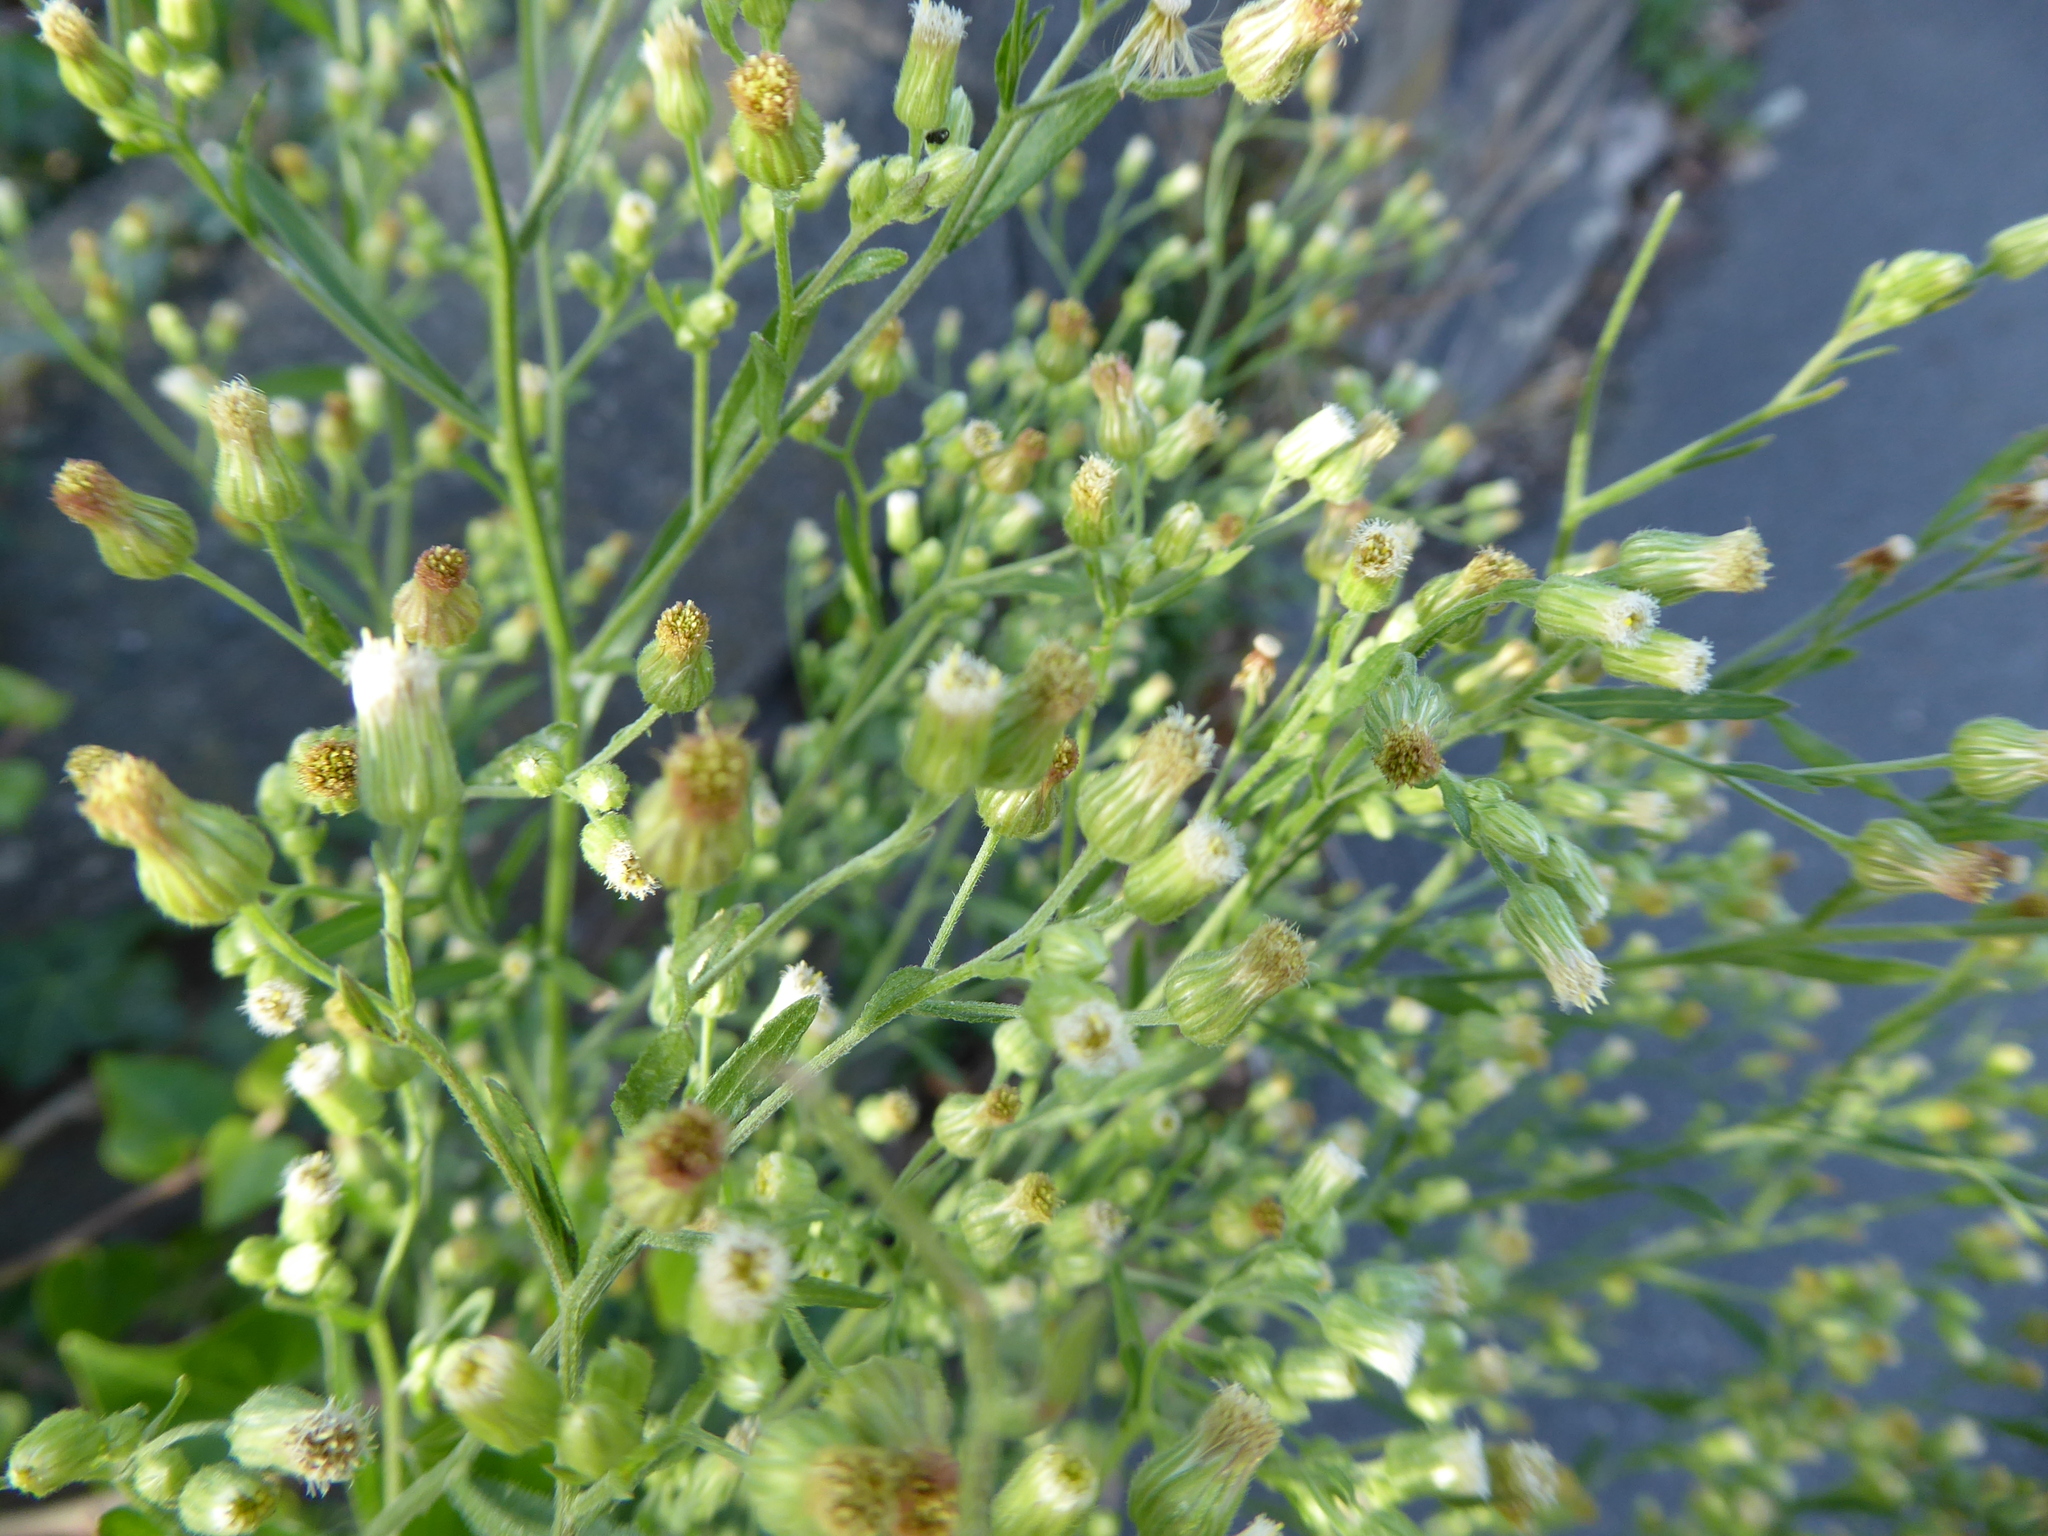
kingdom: Plantae
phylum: Tracheophyta
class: Magnoliopsida
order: Asterales
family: Asteraceae
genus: Erigeron
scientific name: Erigeron sumatrensis
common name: Daisy
